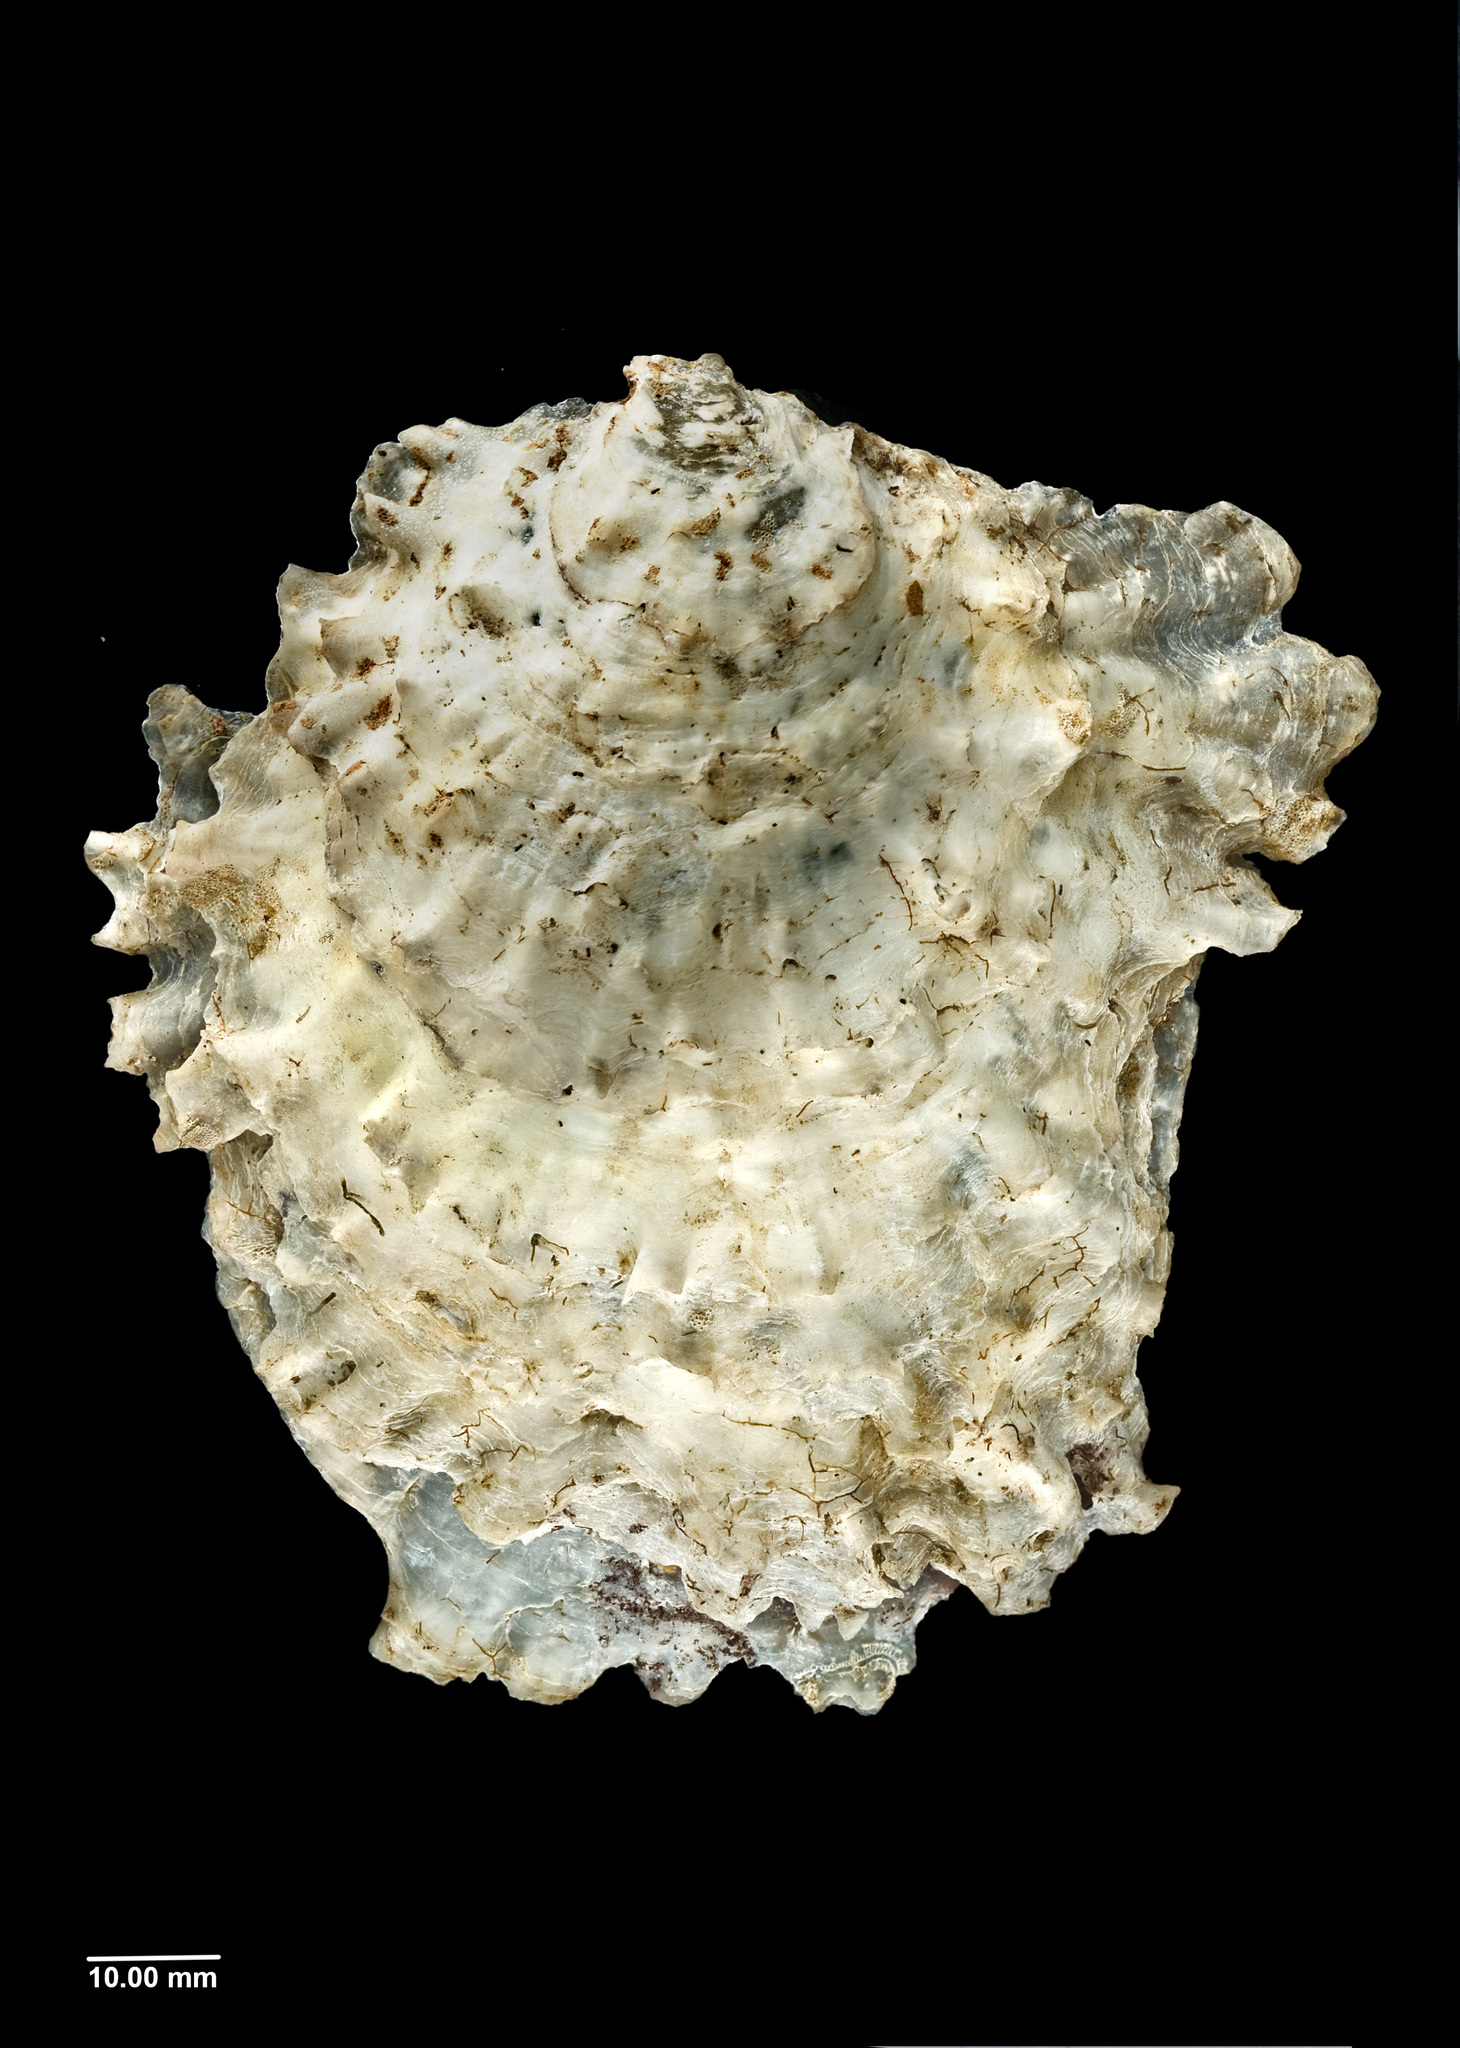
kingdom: Animalia
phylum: Mollusca
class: Bivalvia
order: Ostreida
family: Ostreidae
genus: Ostrea
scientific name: Ostrea chilensis
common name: Chilean oyster
